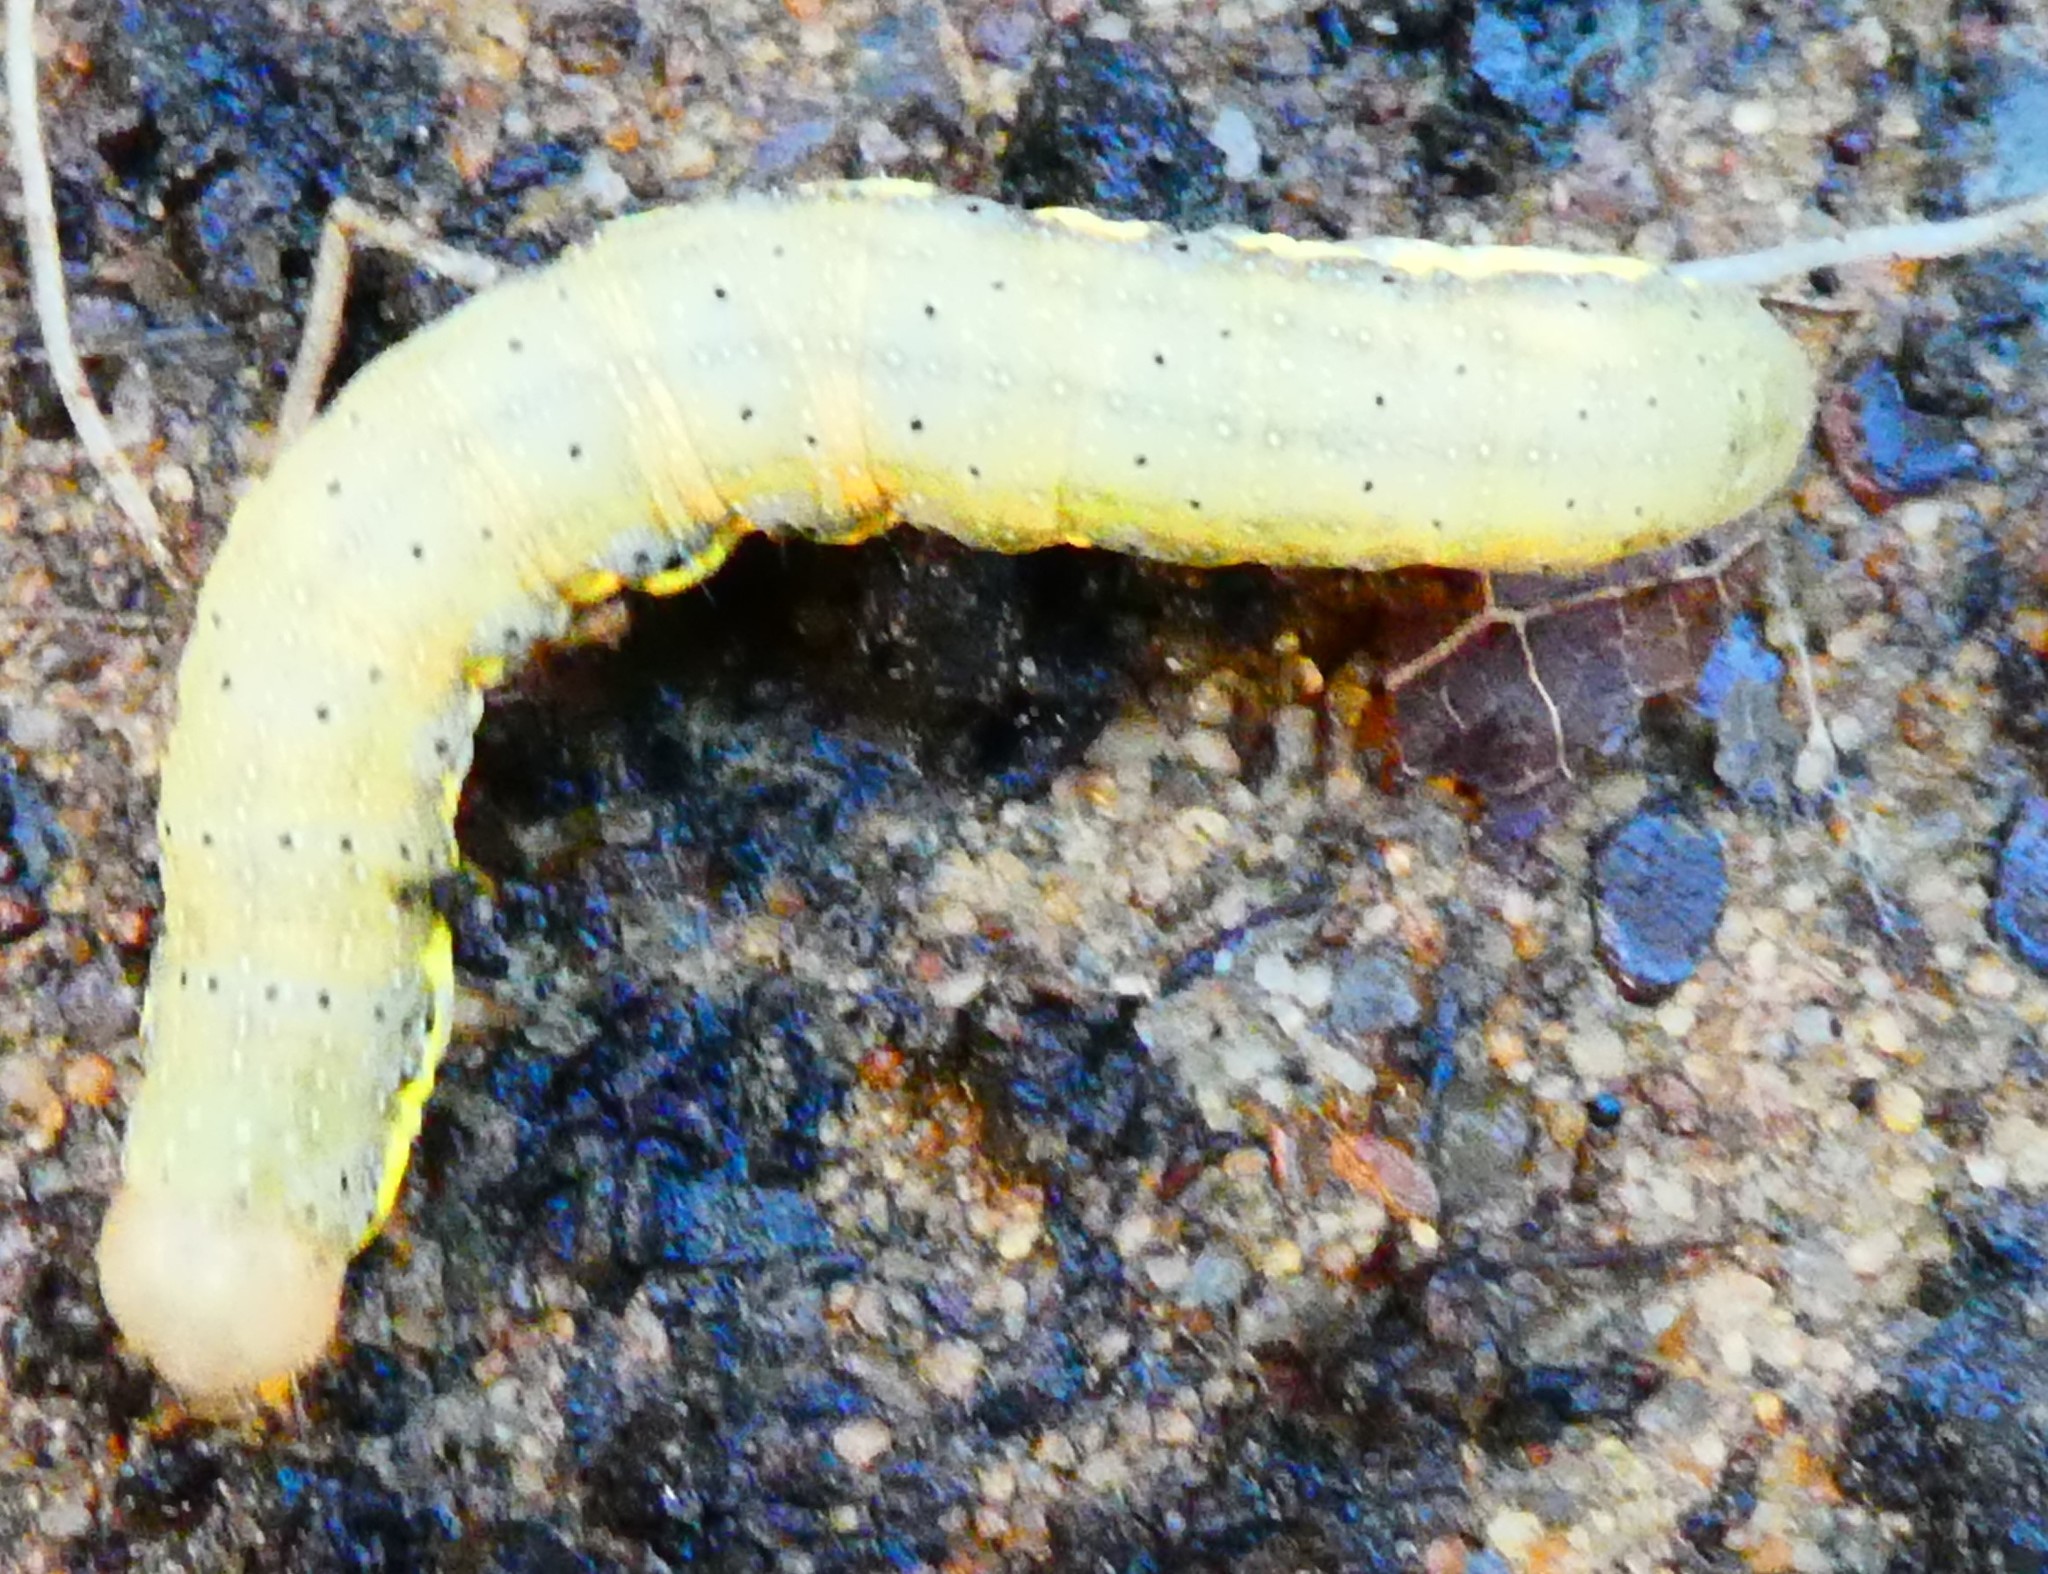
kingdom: Animalia
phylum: Arthropoda
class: Insecta
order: Lepidoptera
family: Noctuidae
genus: Lacanobia
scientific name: Lacanobia oleracea
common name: Bright-line brown-eye
